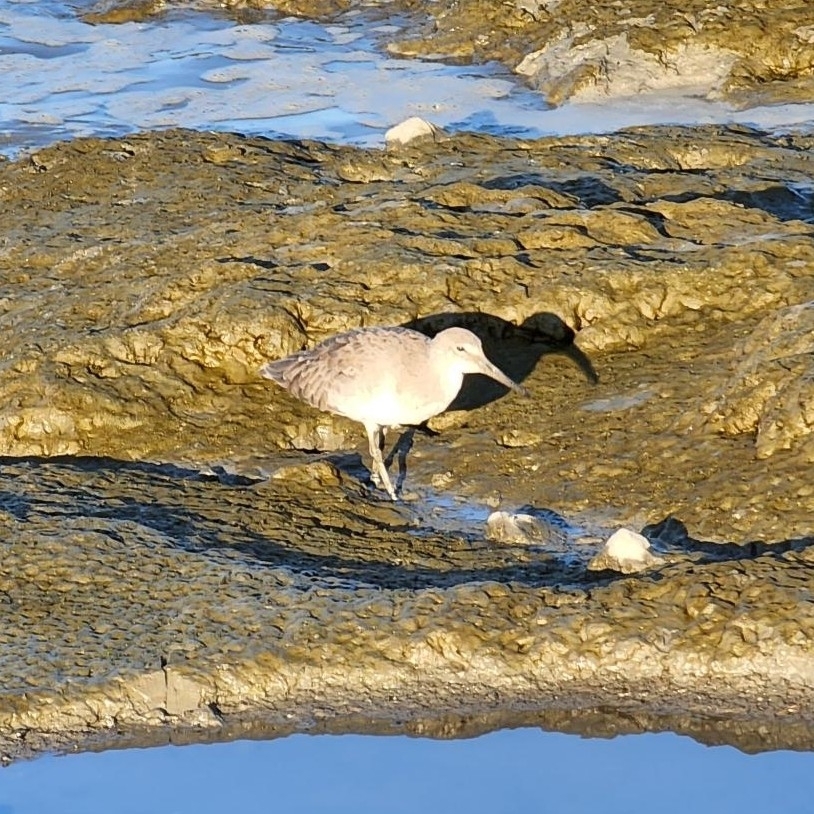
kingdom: Animalia
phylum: Chordata
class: Aves
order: Charadriiformes
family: Scolopacidae
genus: Tringa
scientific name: Tringa semipalmata
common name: Willet
